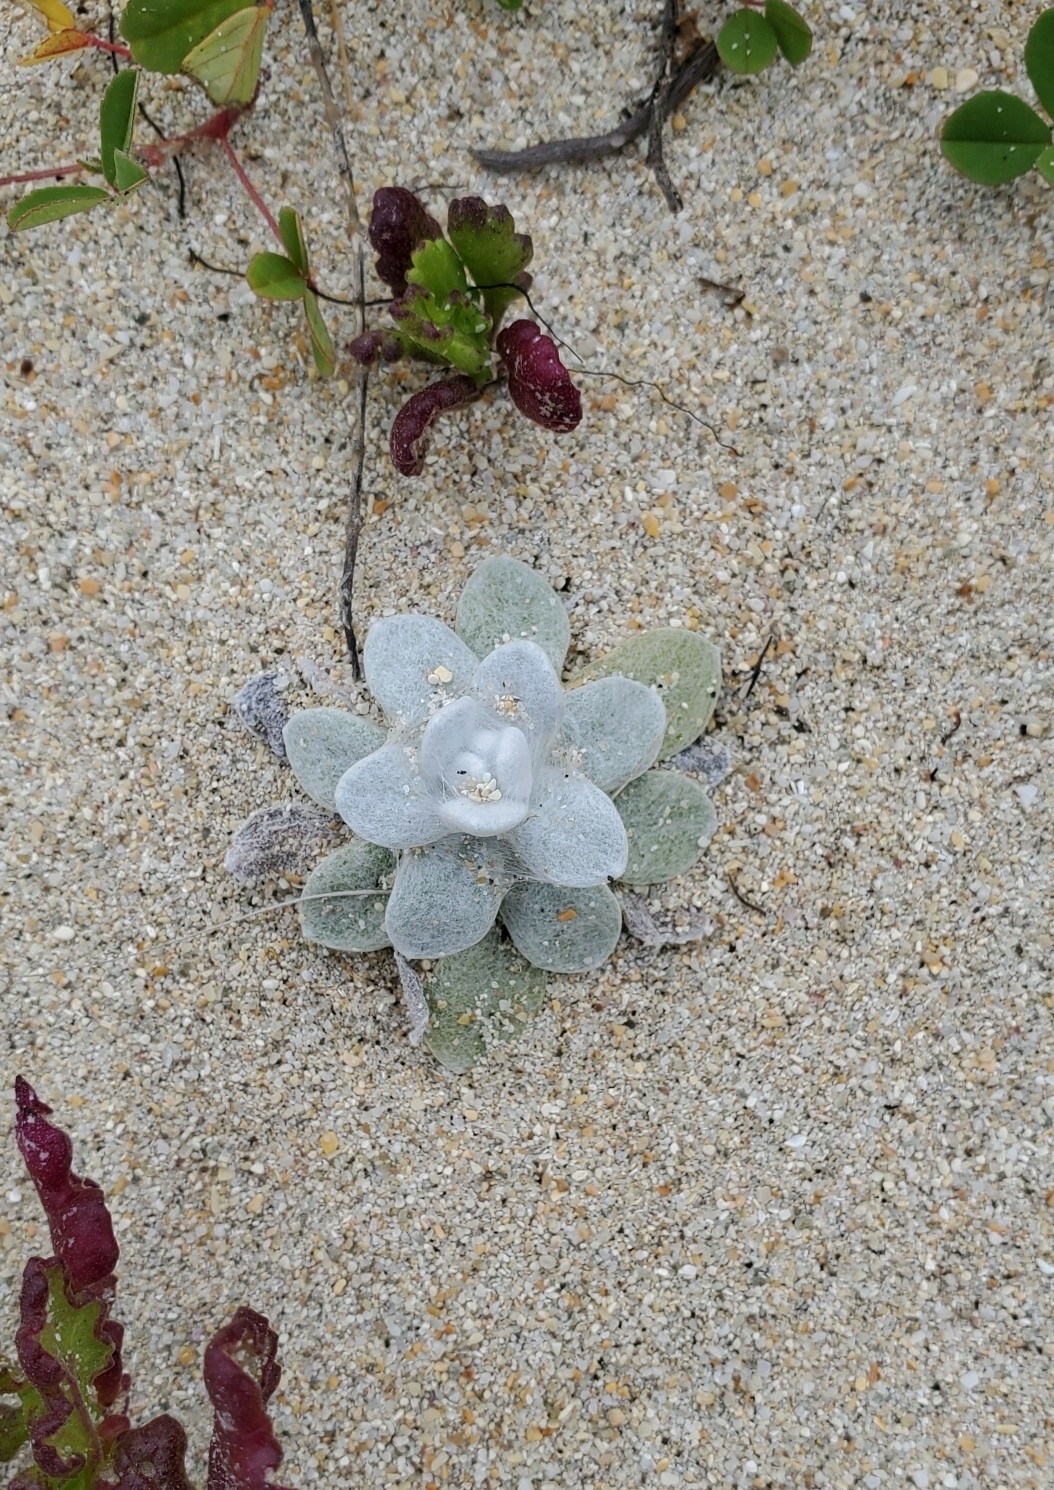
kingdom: Plantae
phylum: Tracheophyta
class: Magnoliopsida
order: Asterales
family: Asteraceae
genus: Pseudognaphalium
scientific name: Pseudognaphalium
